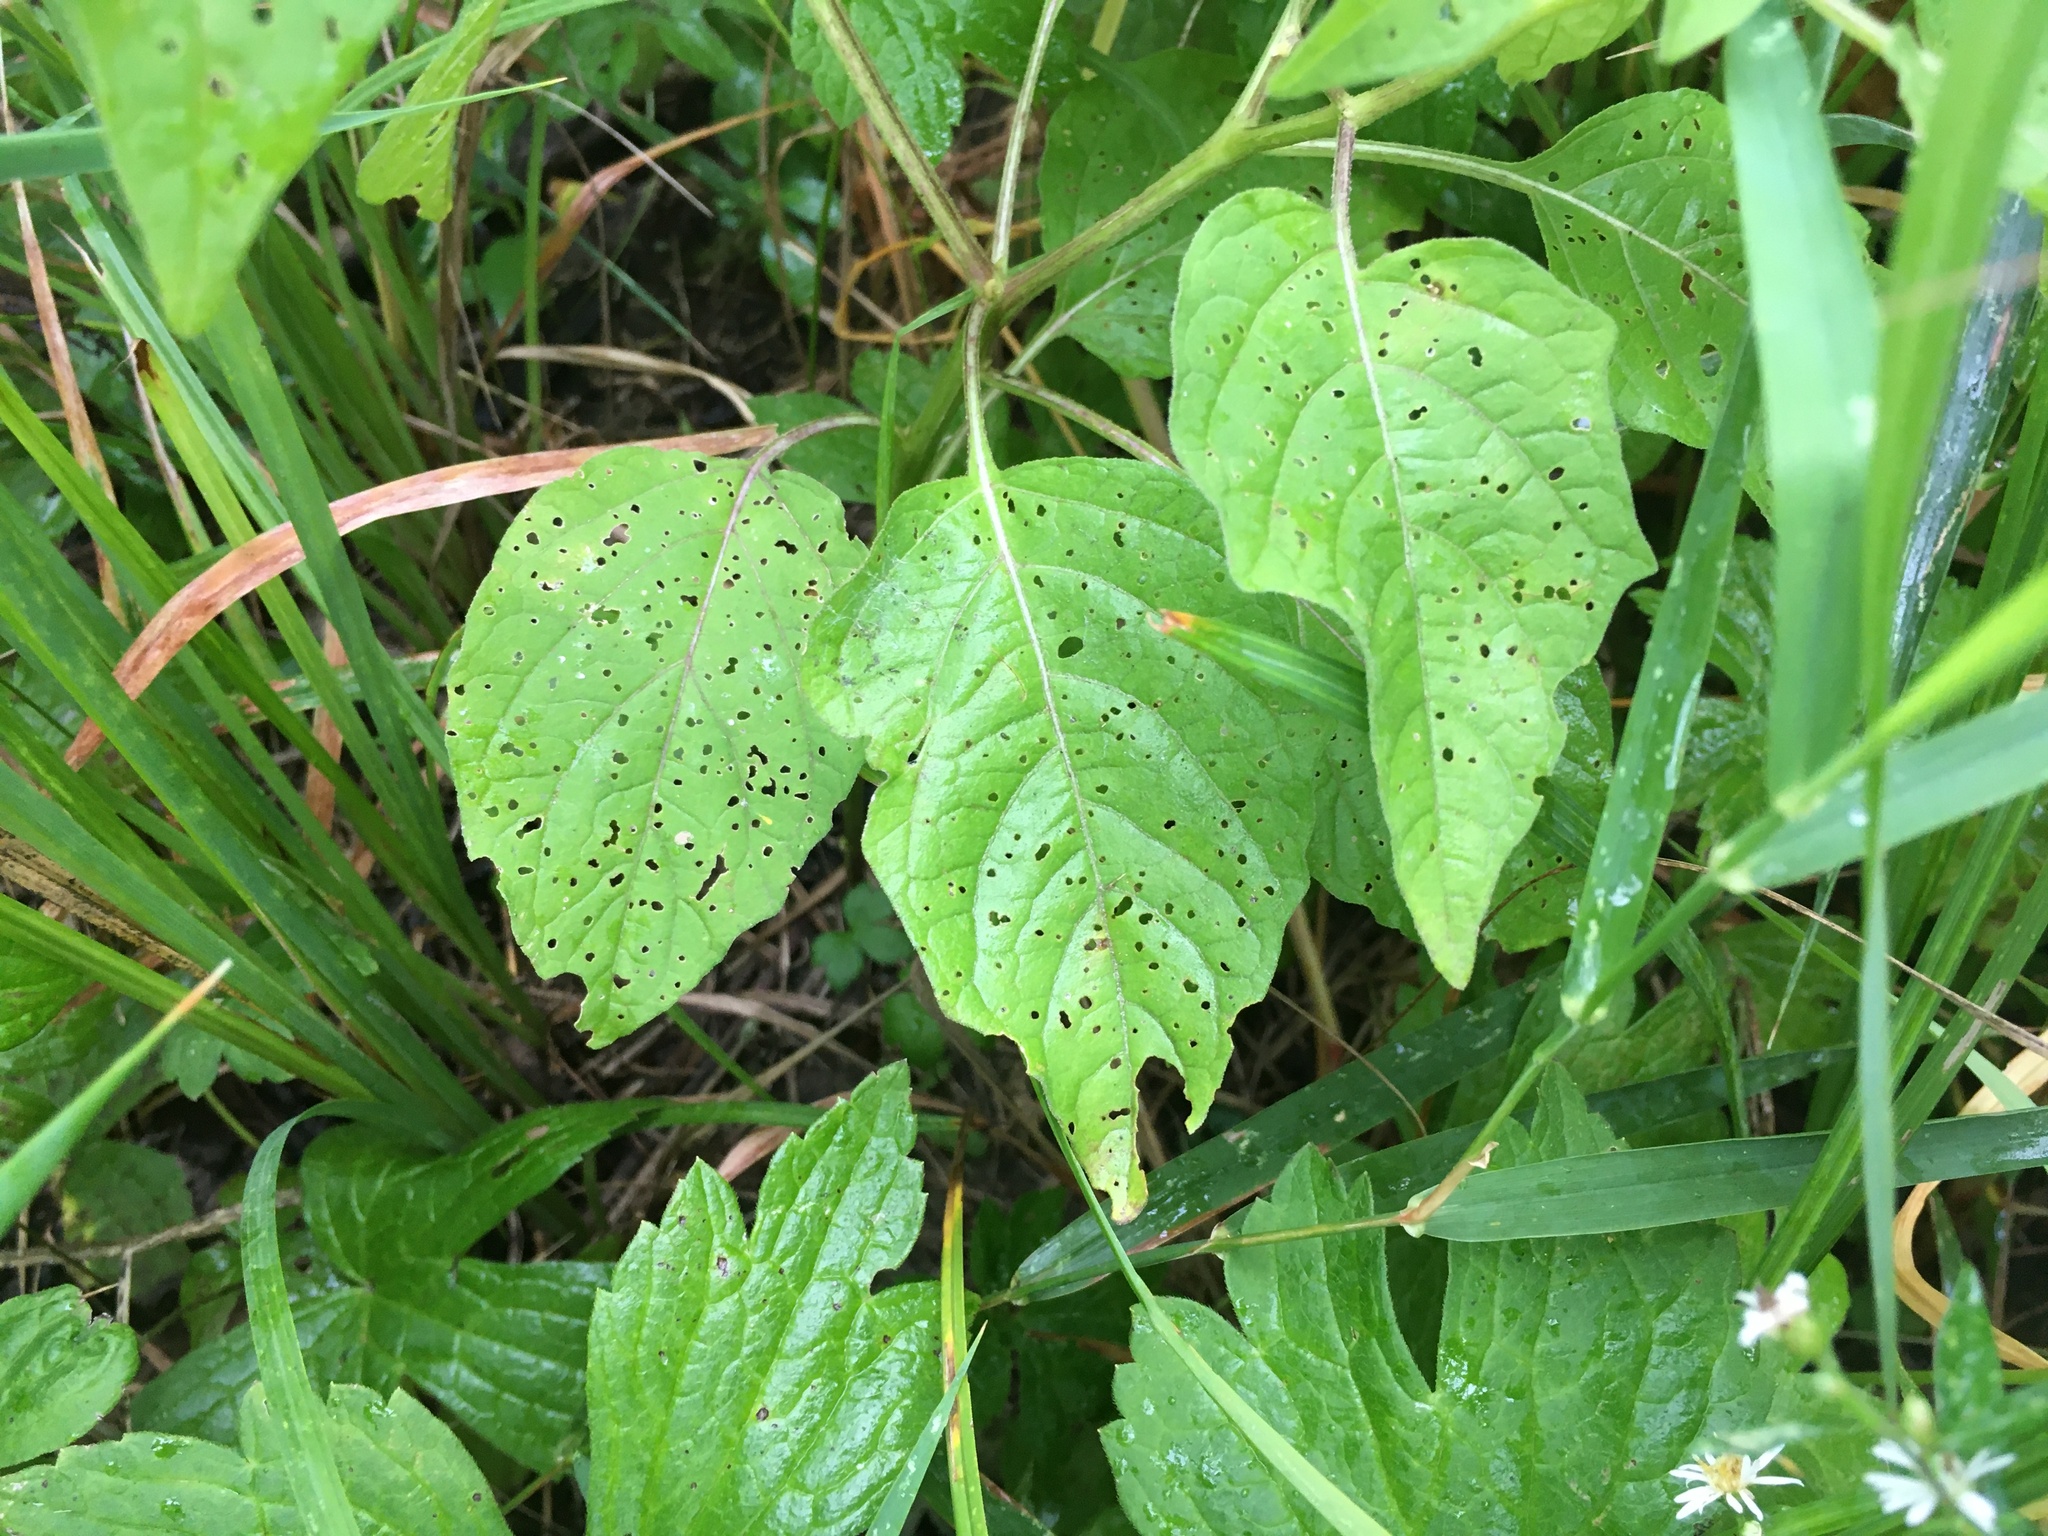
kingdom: Plantae
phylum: Tracheophyta
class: Magnoliopsida
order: Solanales
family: Solanaceae
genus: Physalis
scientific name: Physalis longifolia
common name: Common ground-cherry
